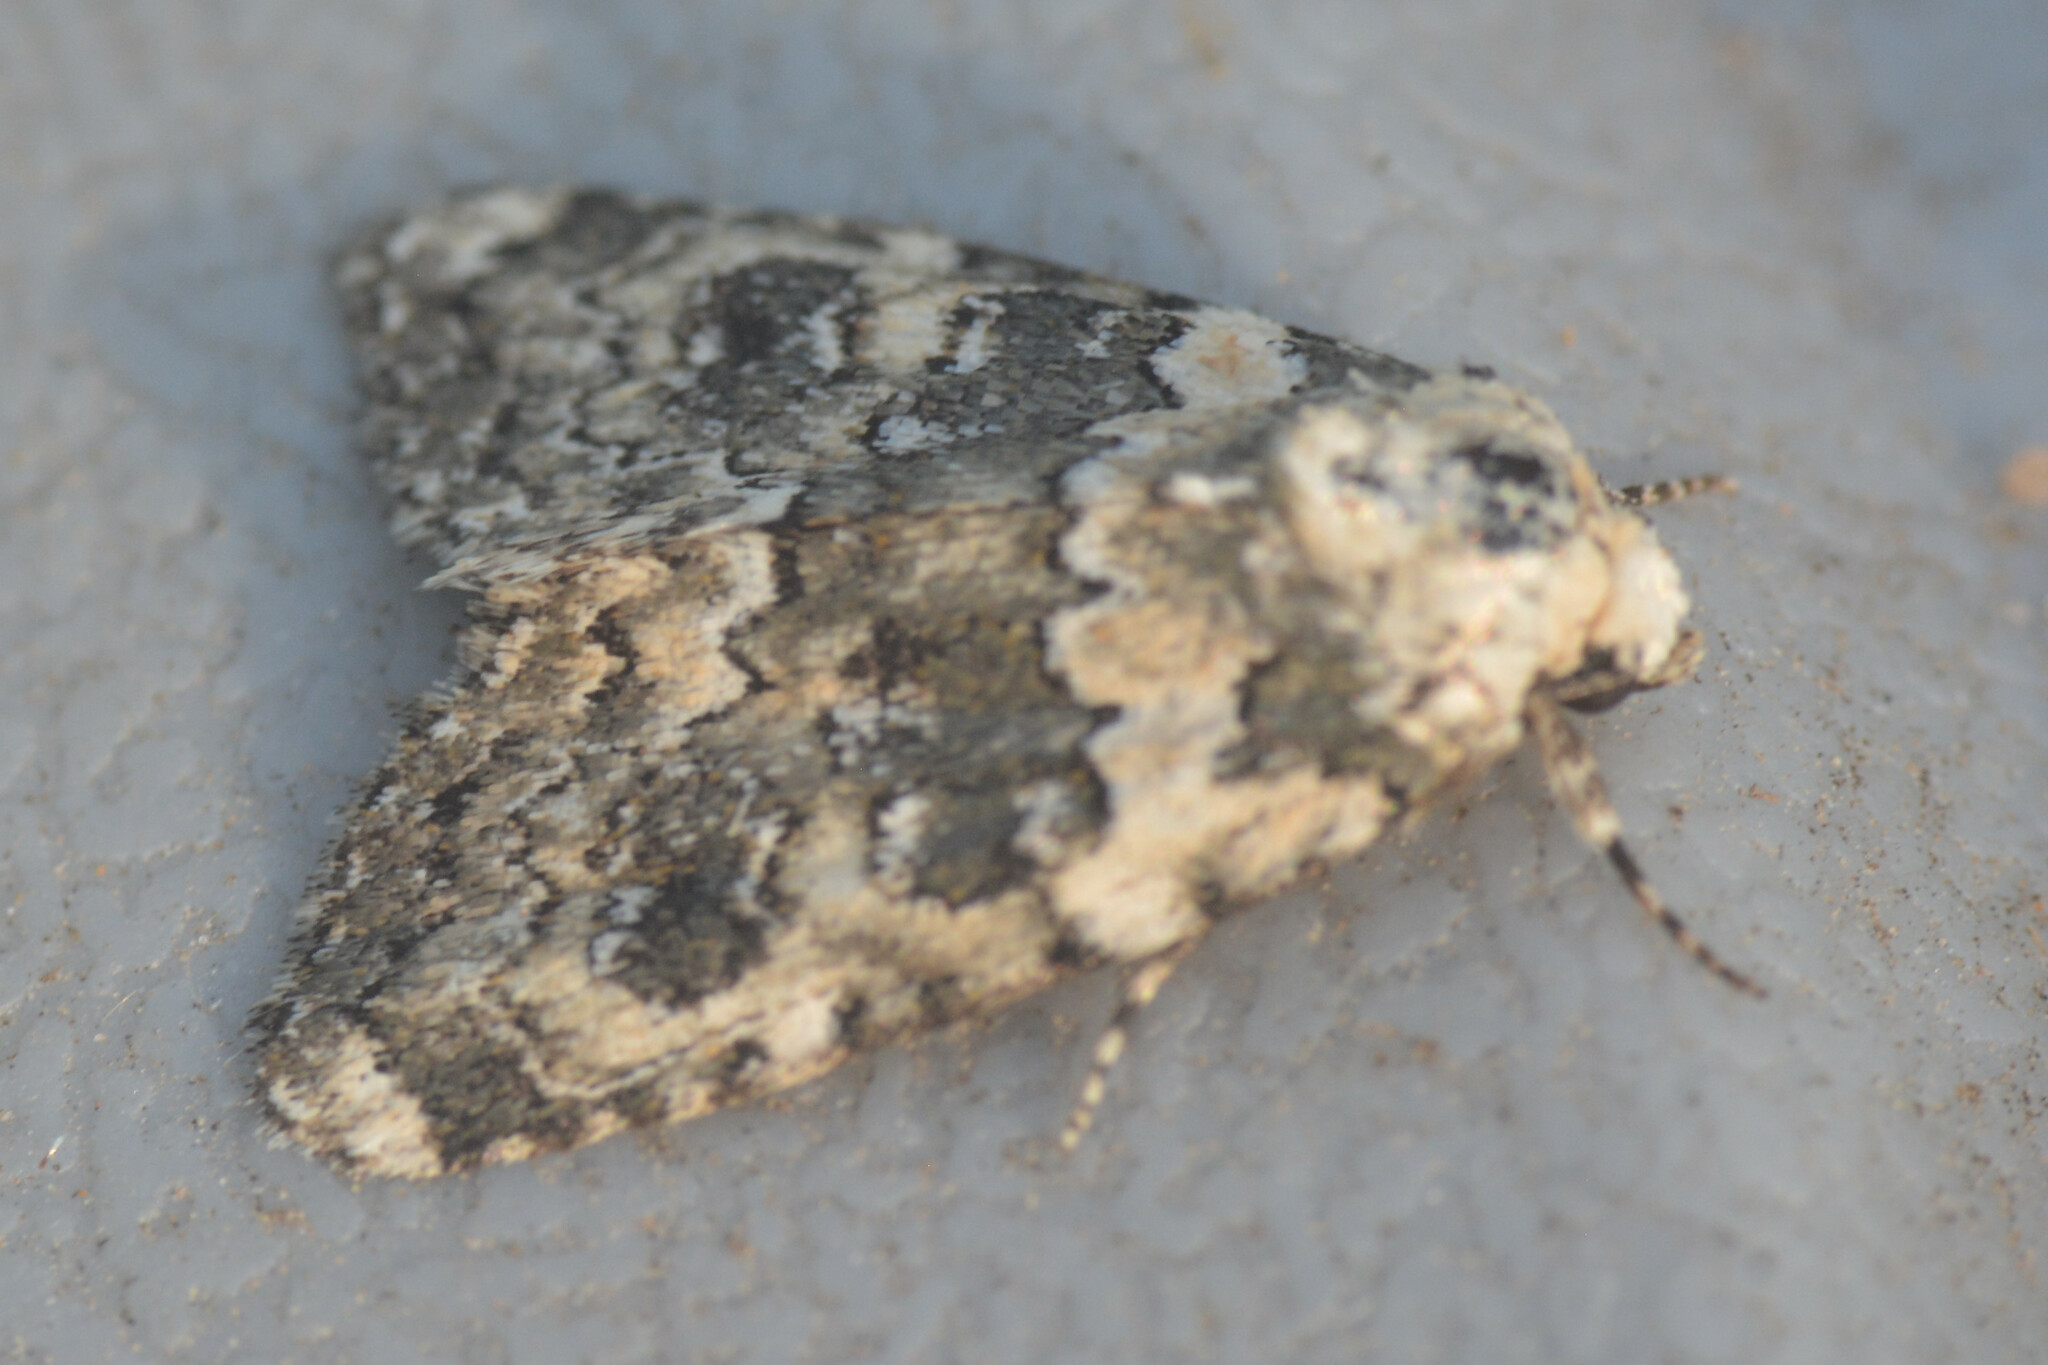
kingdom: Animalia
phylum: Arthropoda
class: Insecta
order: Lepidoptera
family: Noctuidae
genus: Bryophila
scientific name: Bryophila domestica
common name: Marbled beauty
